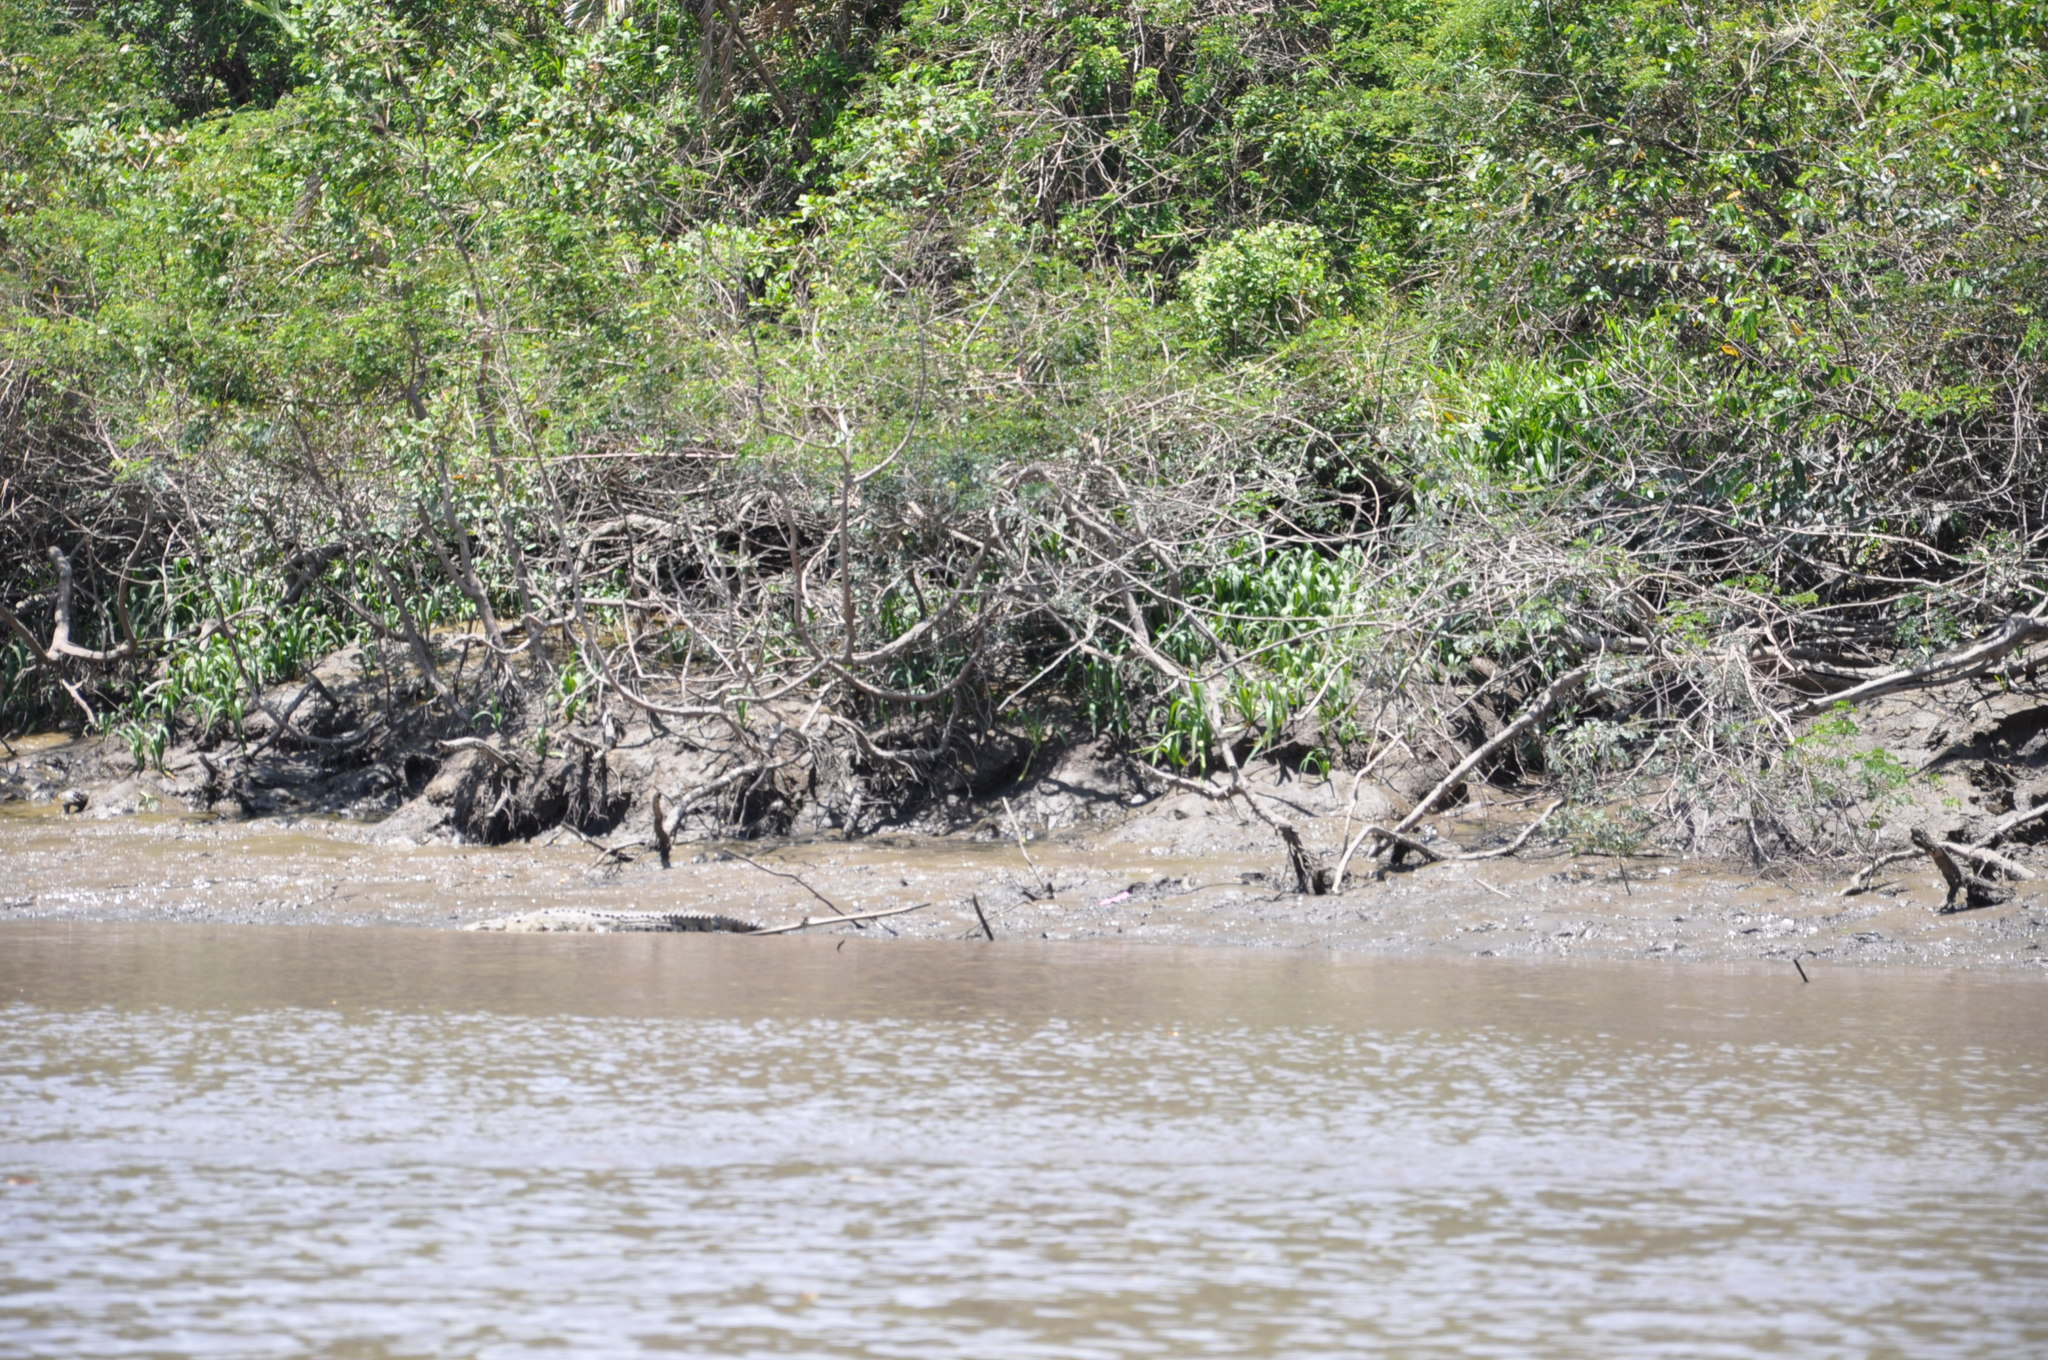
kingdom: Animalia
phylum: Chordata
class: Crocodylia
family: Crocodylidae
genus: Crocodylus
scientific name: Crocodylus acutus
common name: American crocodile
